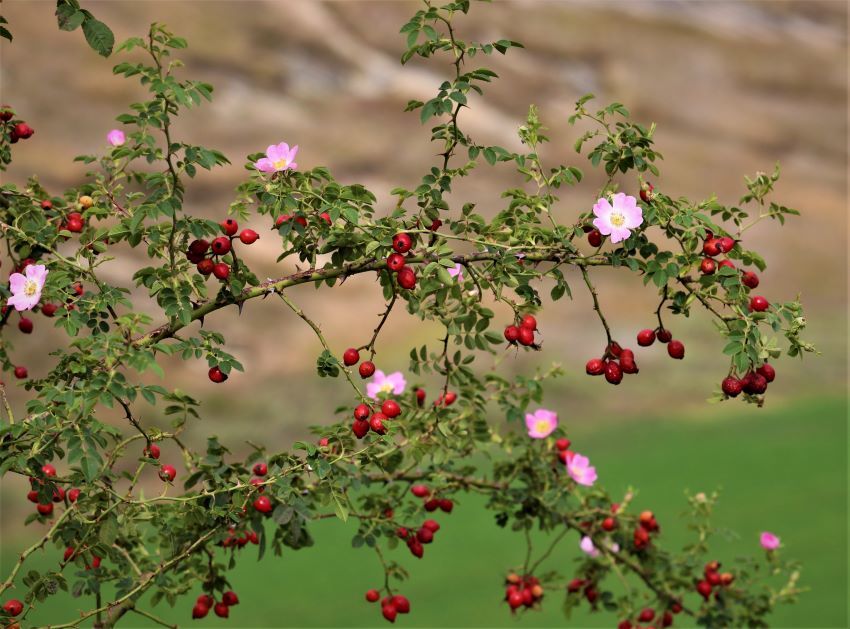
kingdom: Plantae
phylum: Tracheophyta
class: Magnoliopsida
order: Rosales
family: Rosaceae
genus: Rosa
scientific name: Rosa rubiginosa
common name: Sweet-briar
